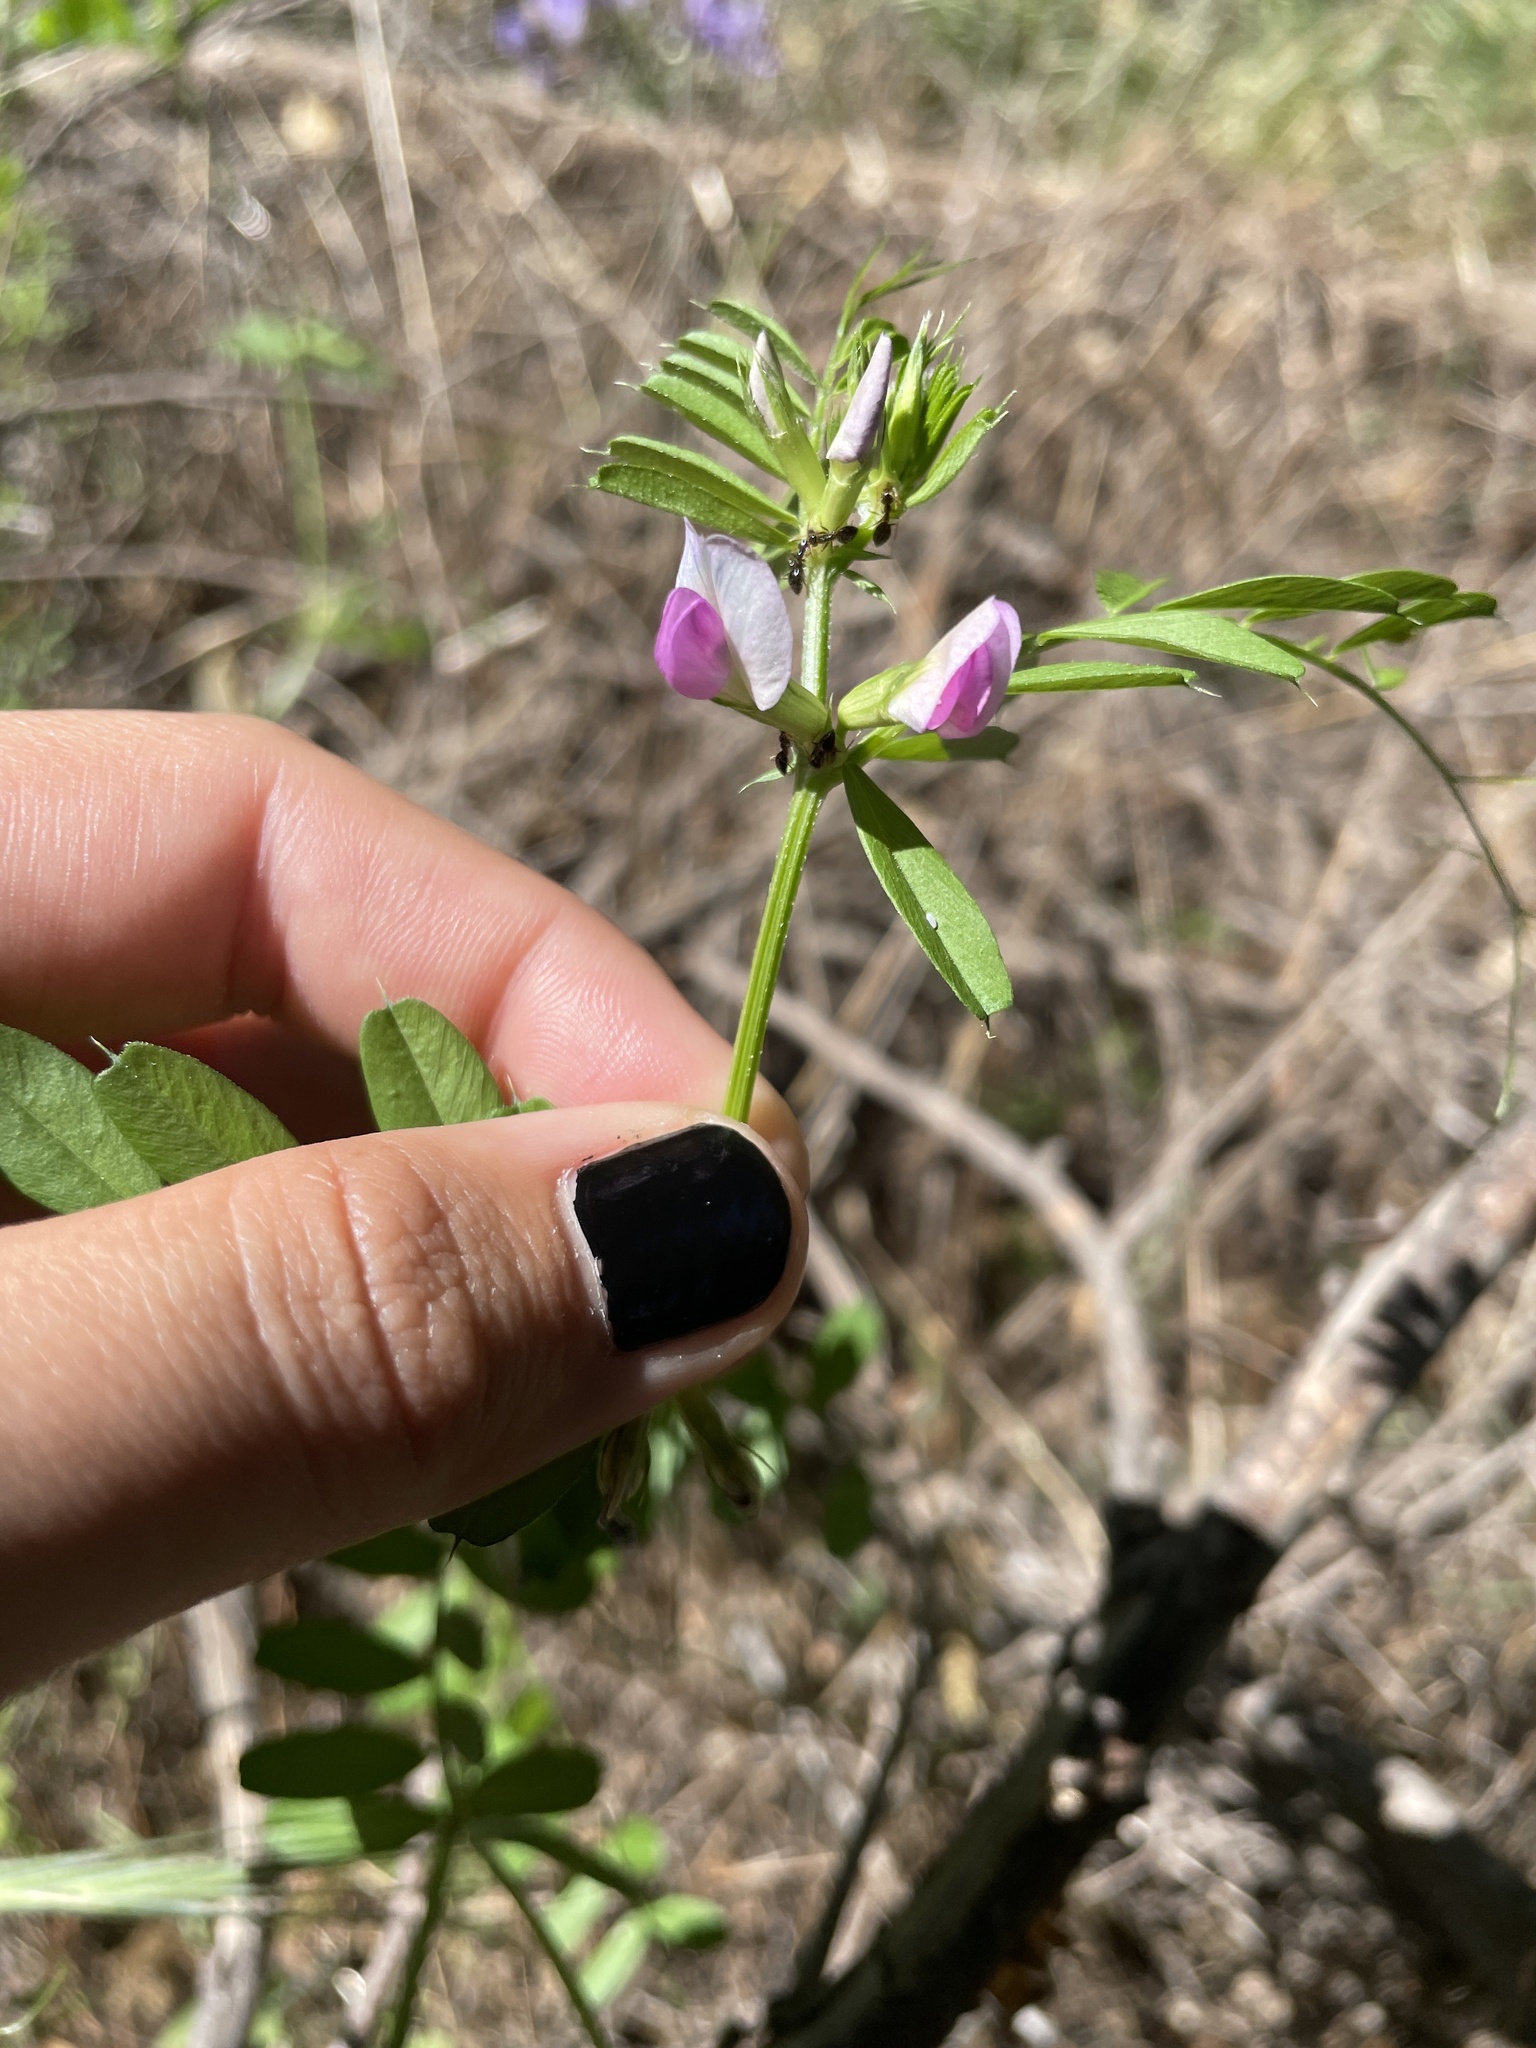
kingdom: Plantae
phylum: Tracheophyta
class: Magnoliopsida
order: Fabales
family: Fabaceae
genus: Vicia
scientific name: Vicia sativa
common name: Garden vetch
